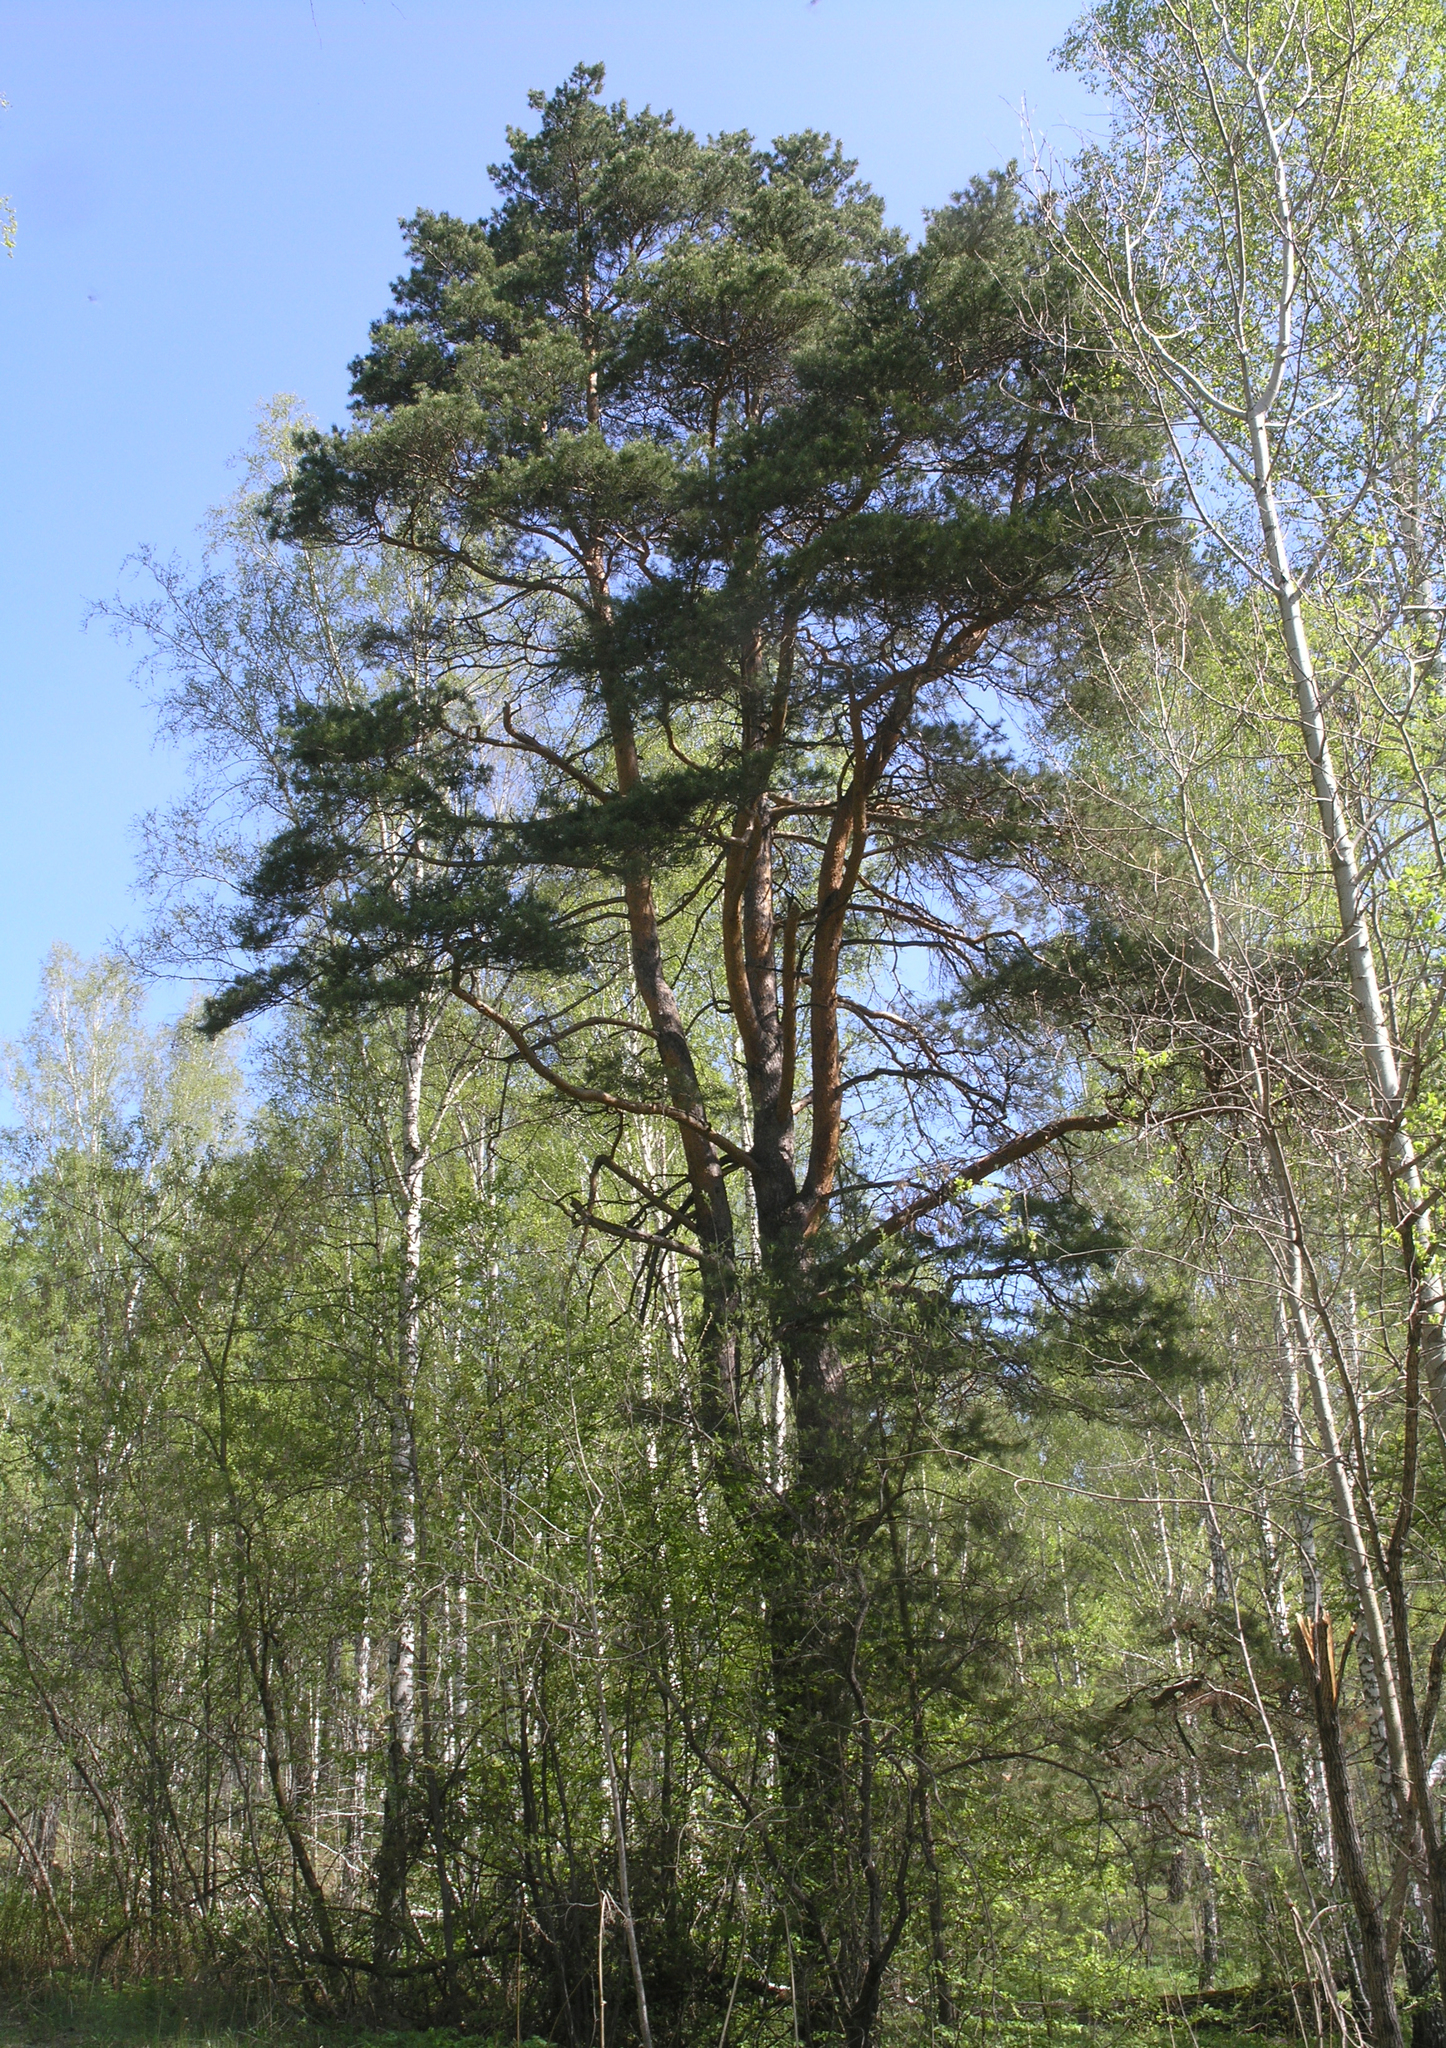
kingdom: Plantae
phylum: Tracheophyta
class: Pinopsida
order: Pinales
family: Pinaceae
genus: Pinus
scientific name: Pinus sylvestris
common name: Scots pine
